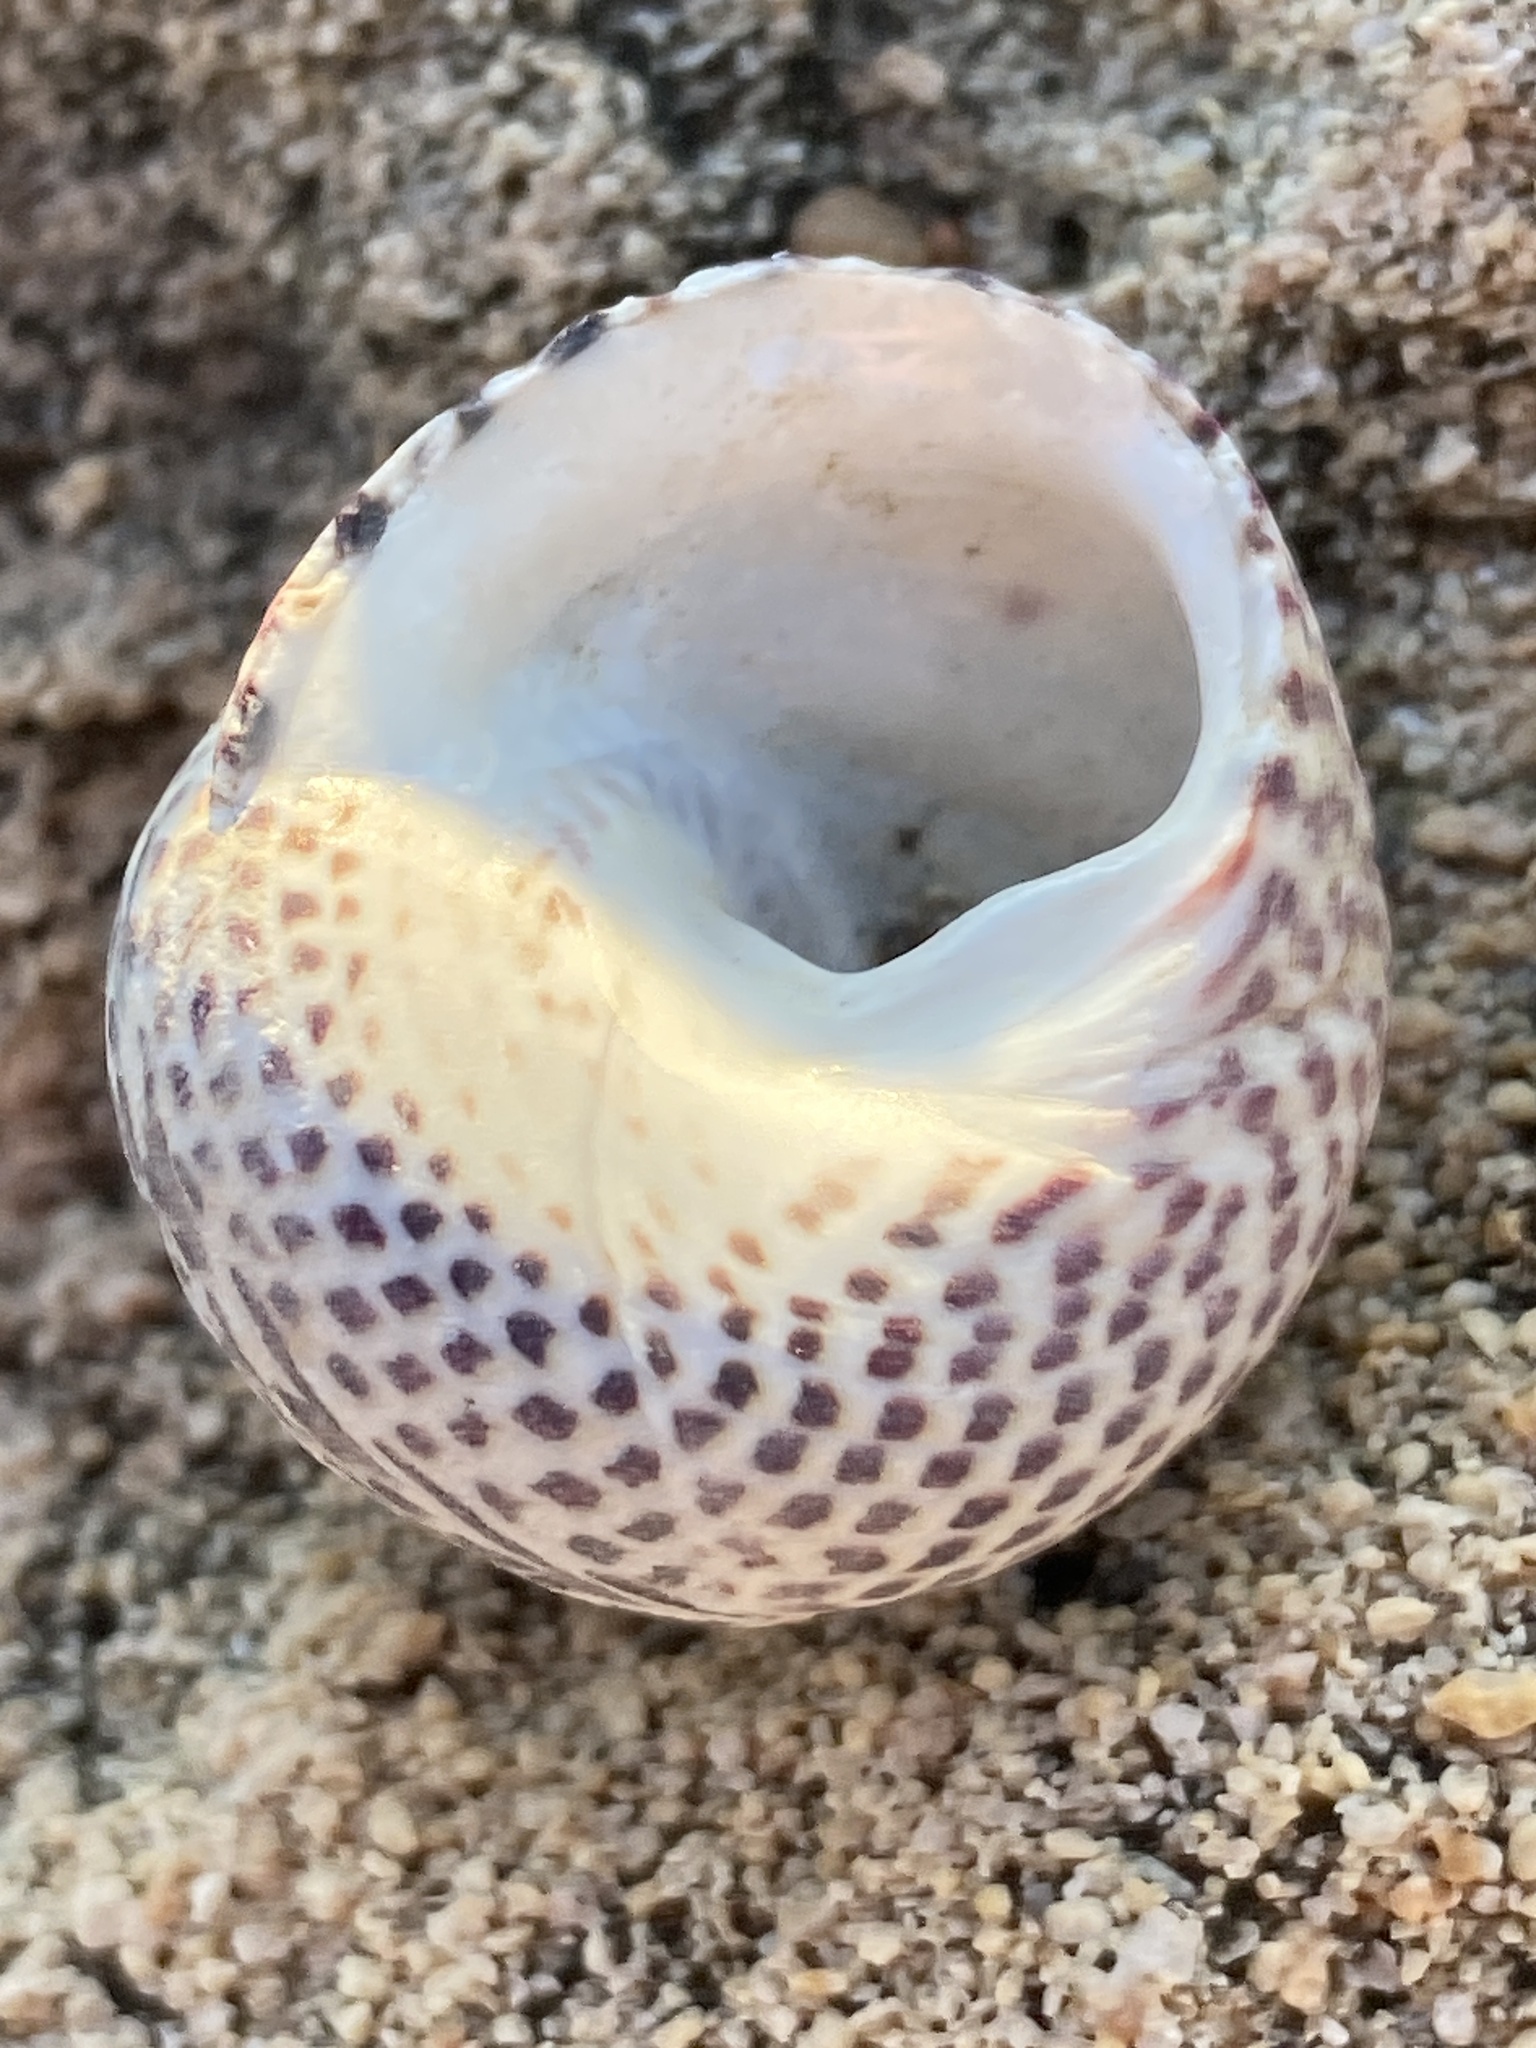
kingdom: Animalia
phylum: Mollusca
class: Gastropoda
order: Trochida
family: Trochidae
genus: Phorcus
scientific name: Phorcus turbinatus
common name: Turbinate monodont
